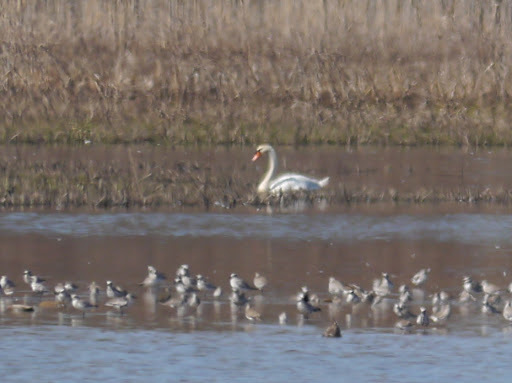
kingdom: Animalia
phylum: Chordata
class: Aves
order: Anseriformes
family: Anatidae
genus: Cygnus
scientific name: Cygnus olor
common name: Mute swan
